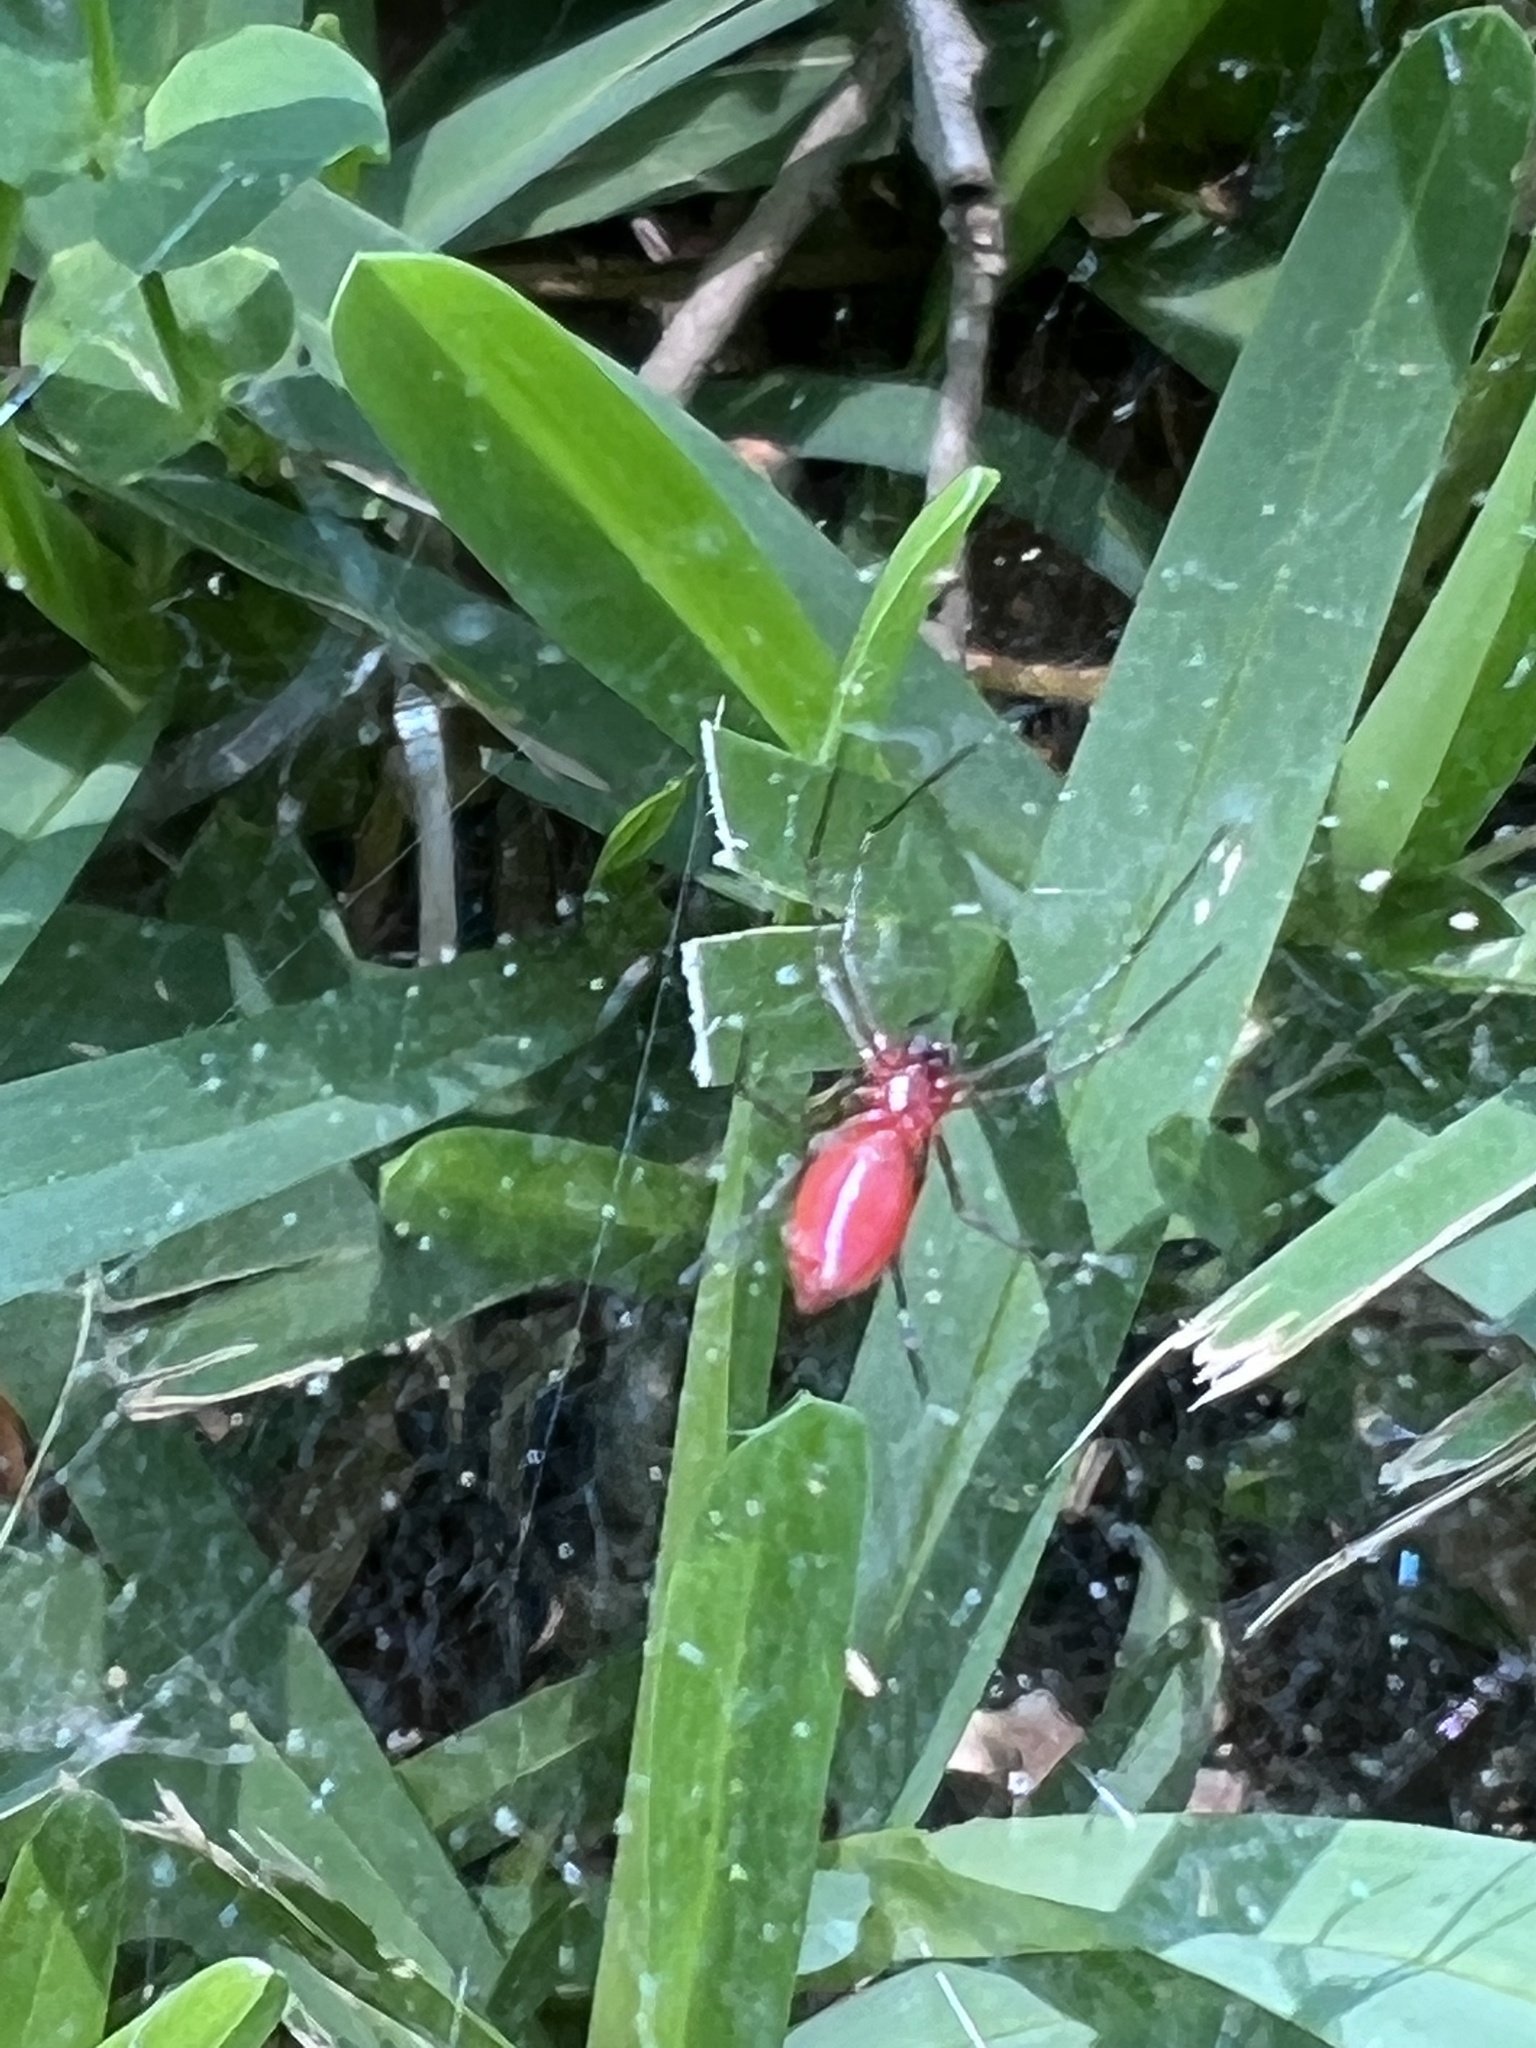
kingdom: Animalia
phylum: Arthropoda
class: Arachnida
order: Araneae
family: Linyphiidae
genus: Florinda
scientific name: Florinda coccinea
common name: Black-tailed red sheetweaver
